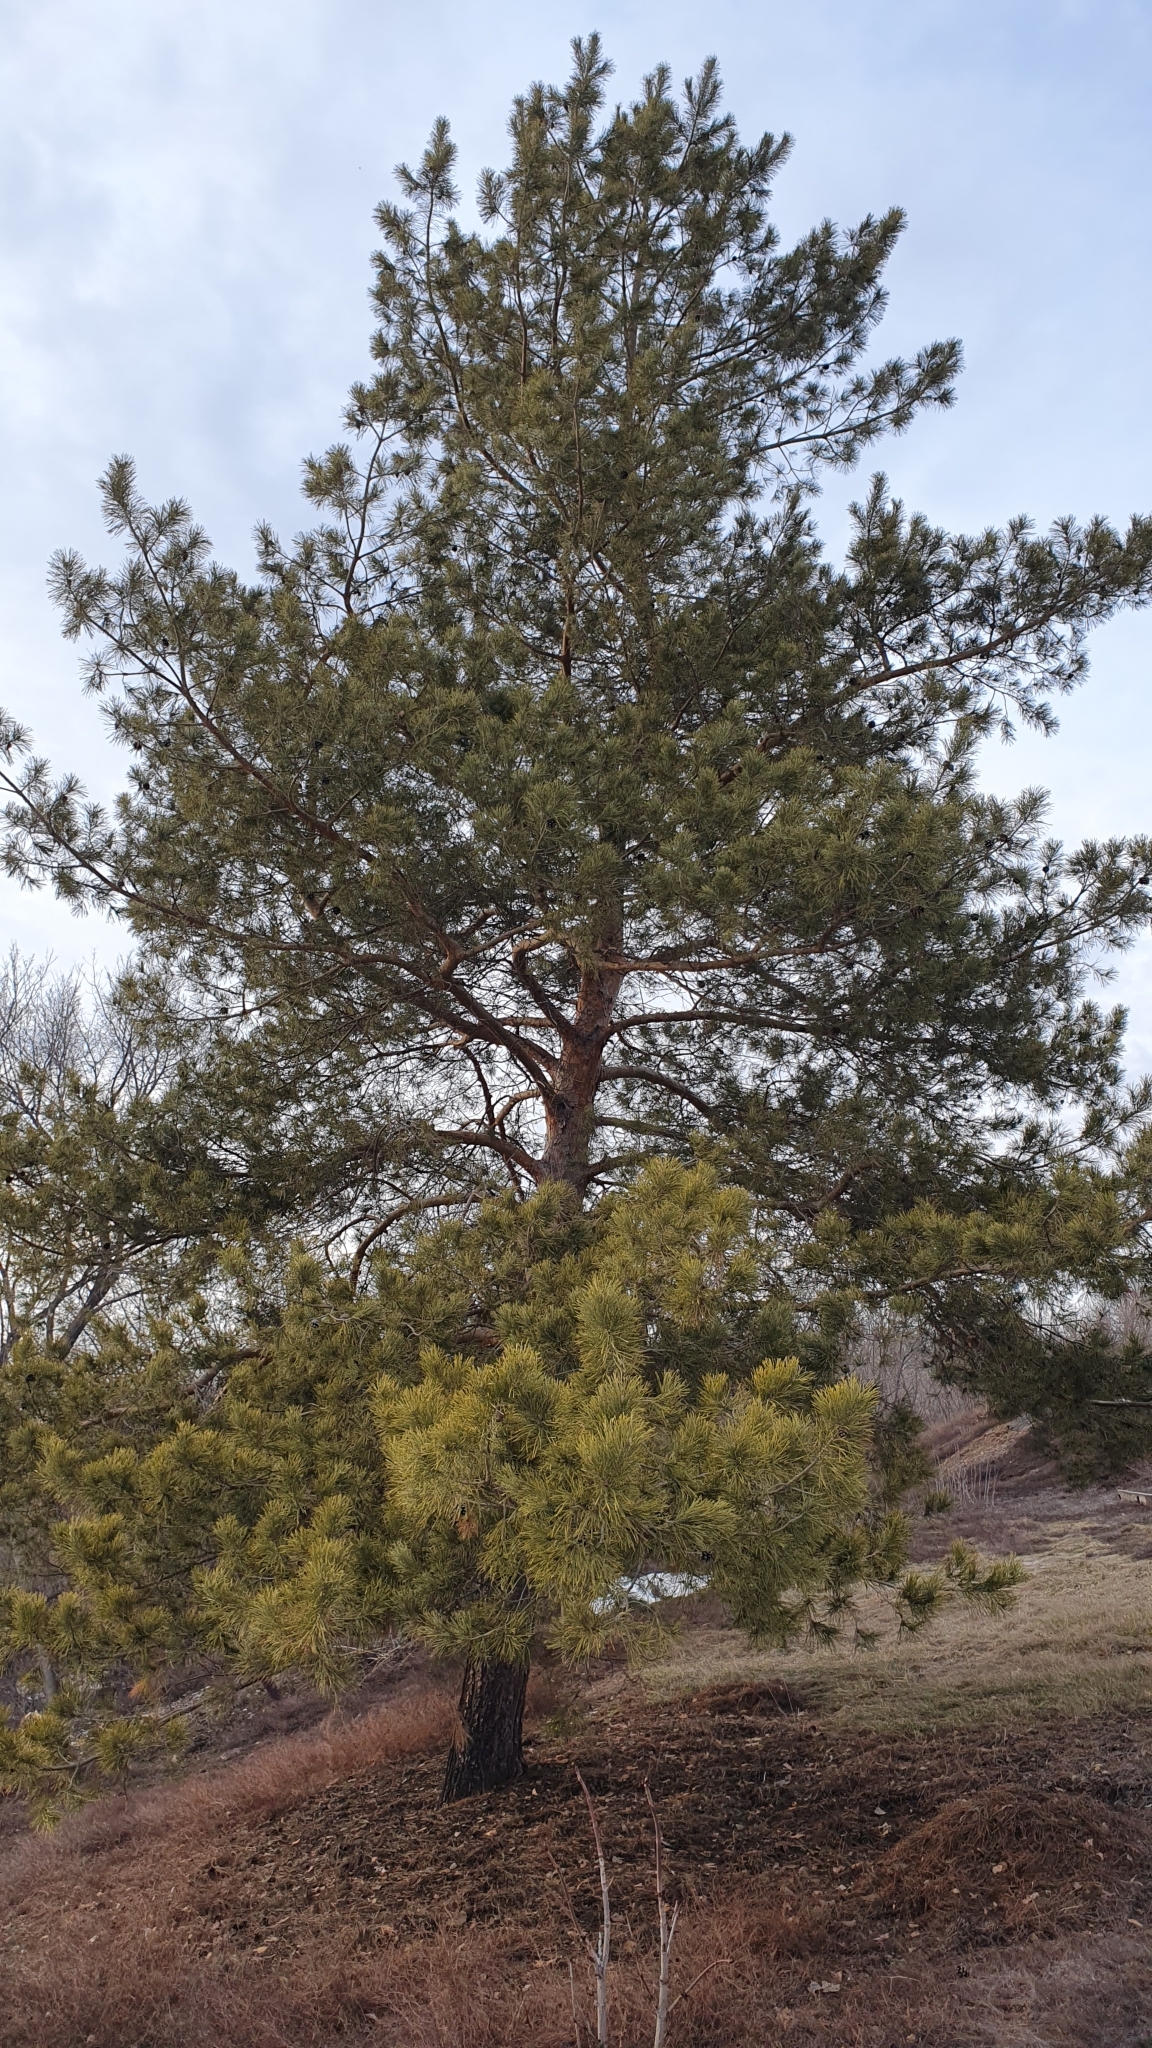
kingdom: Plantae
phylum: Tracheophyta
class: Pinopsida
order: Pinales
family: Pinaceae
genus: Pinus
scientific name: Pinus sylvestris
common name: Scots pine
